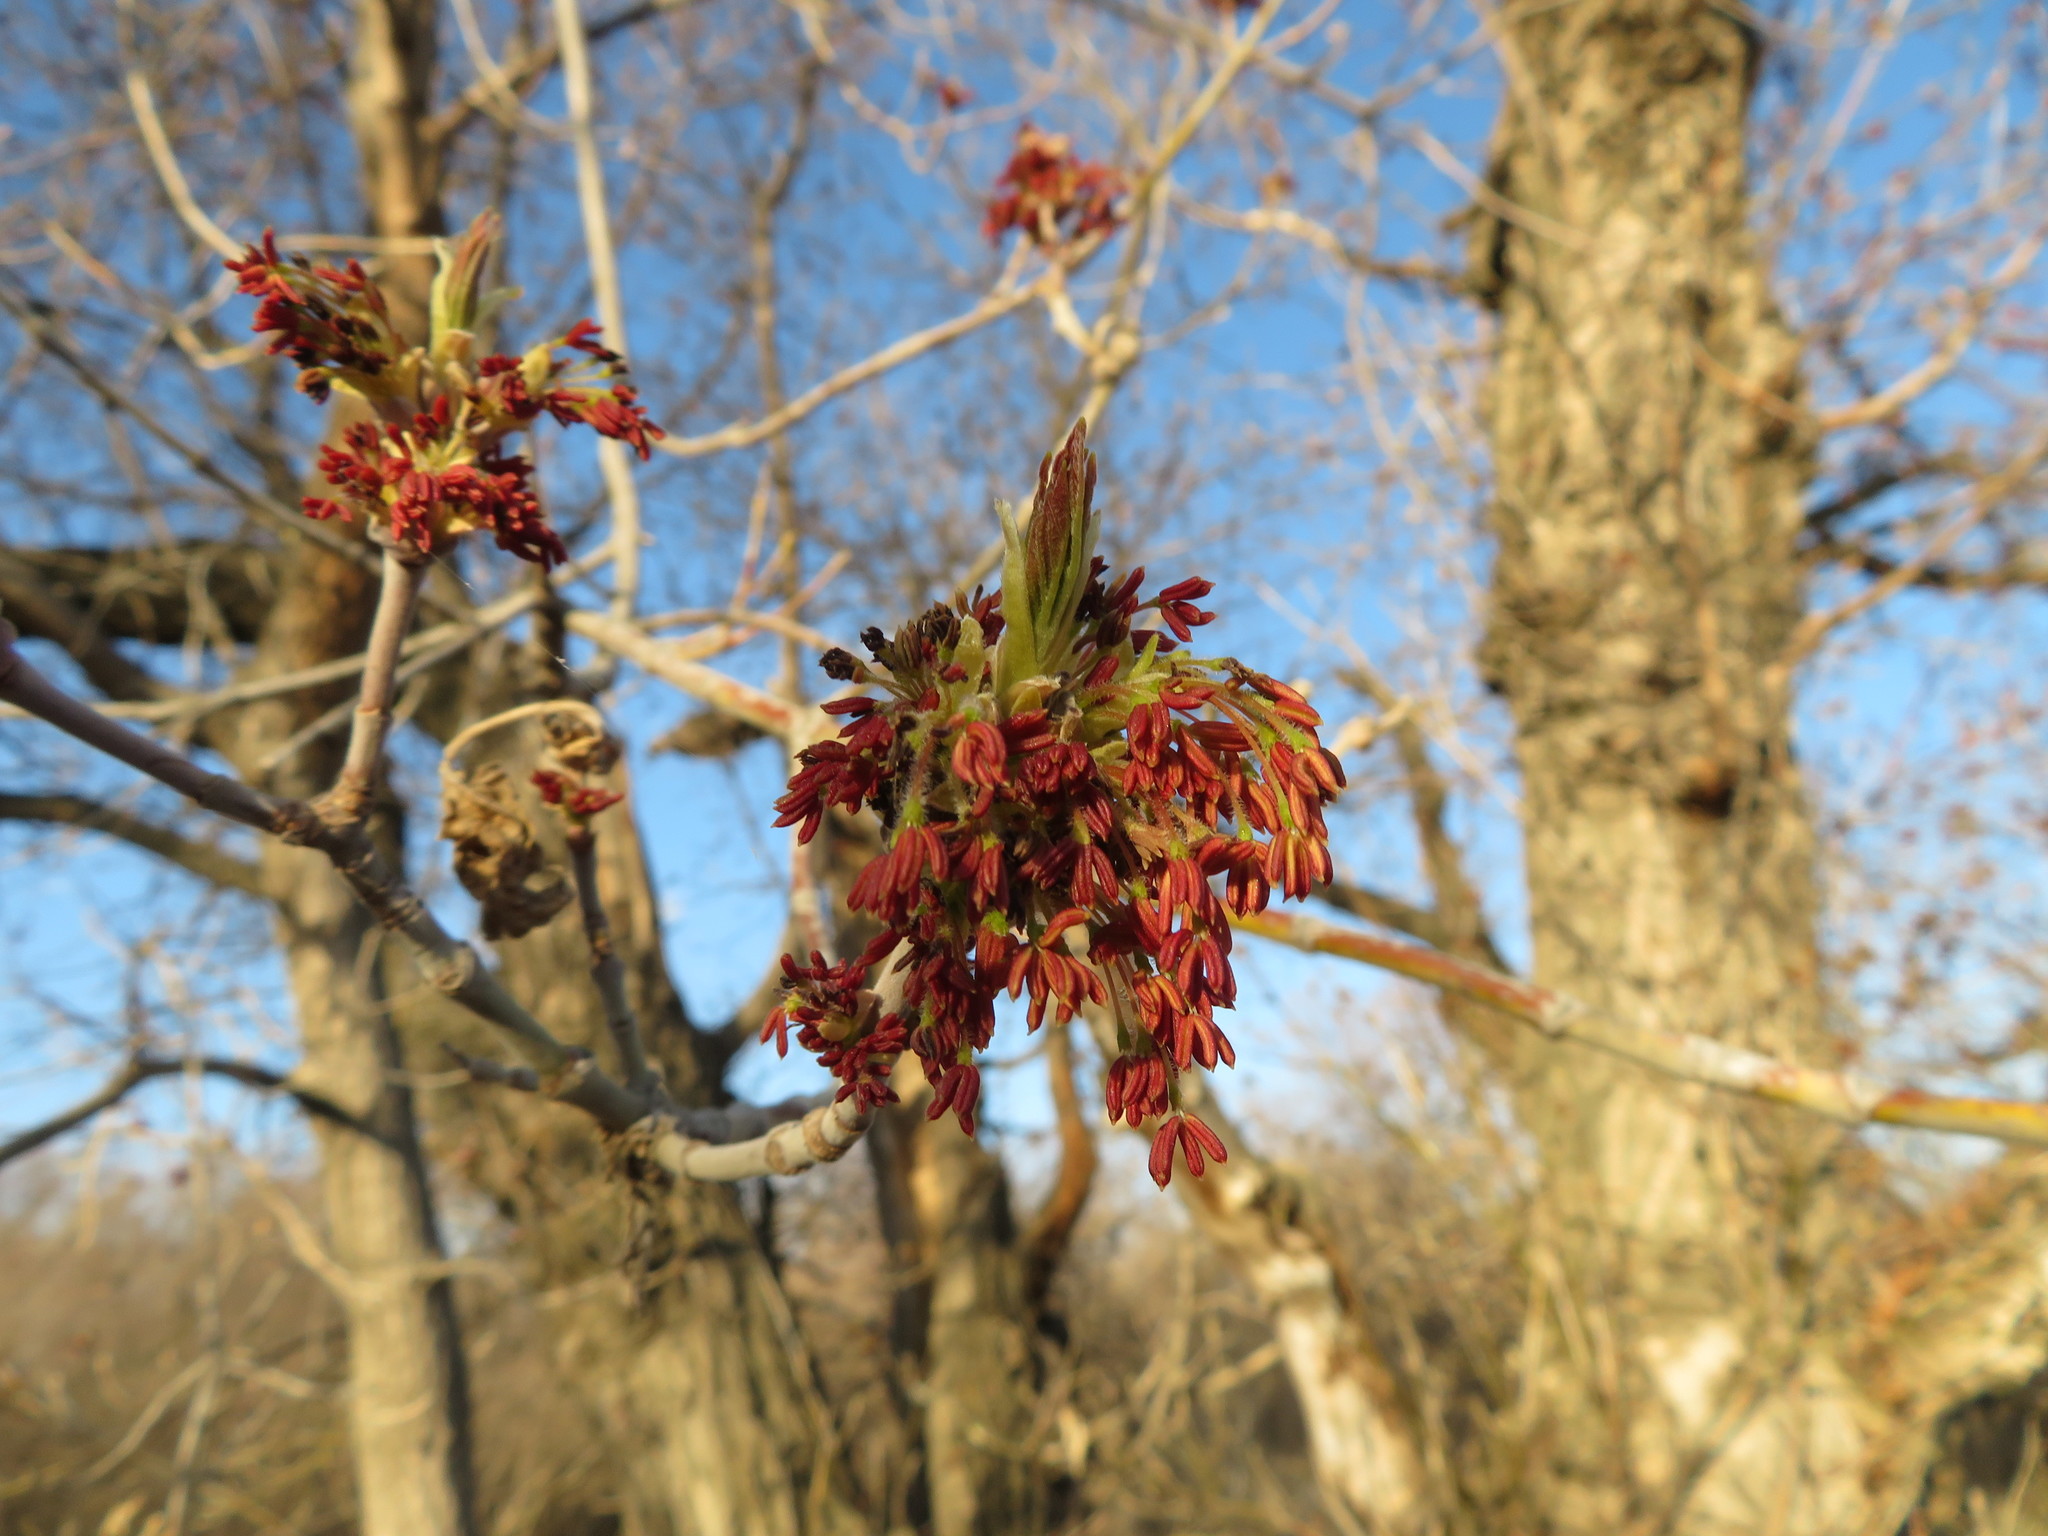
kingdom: Plantae
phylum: Tracheophyta
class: Magnoliopsida
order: Sapindales
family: Sapindaceae
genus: Acer
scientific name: Acer negundo
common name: Ashleaf maple
